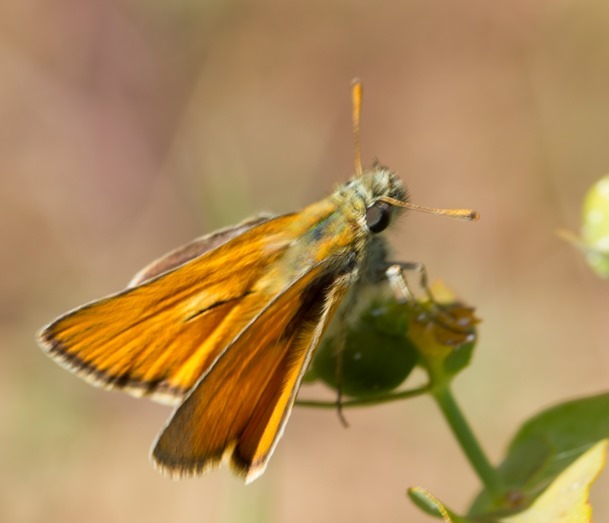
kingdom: Animalia
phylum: Arthropoda
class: Insecta
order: Lepidoptera
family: Hesperiidae
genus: Thymelicus
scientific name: Thymelicus sylvestris
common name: Small skipper
